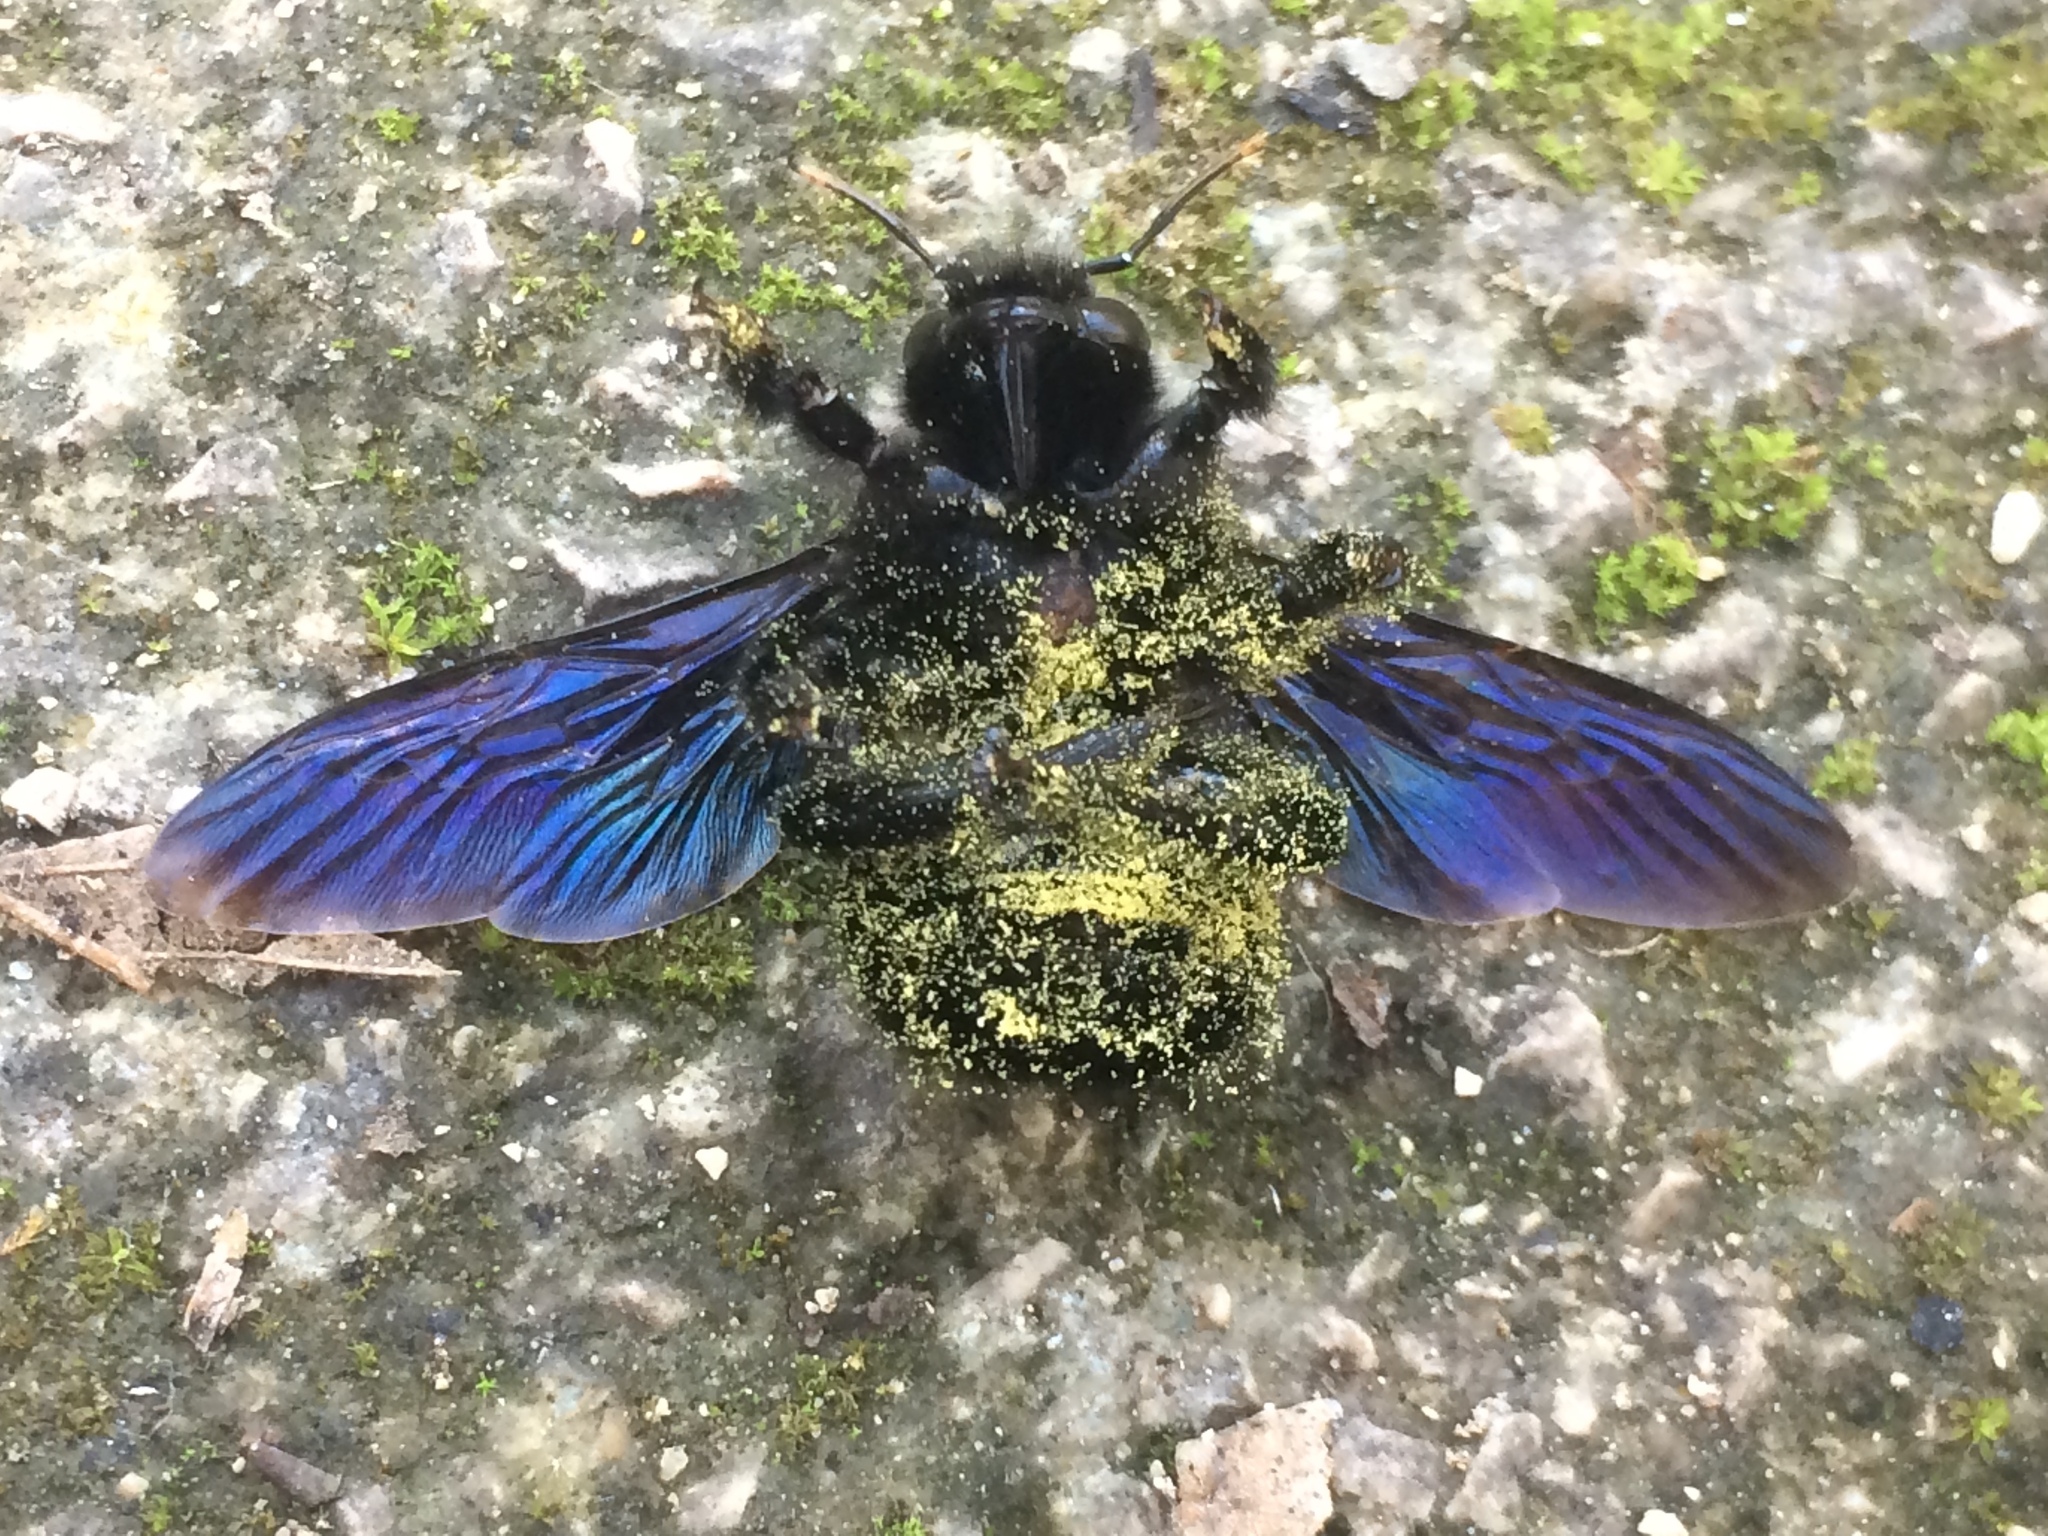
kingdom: Animalia
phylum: Arthropoda
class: Insecta
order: Hymenoptera
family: Apidae
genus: Xylocopa
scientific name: Xylocopa violacea
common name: Violet carpenter bee
